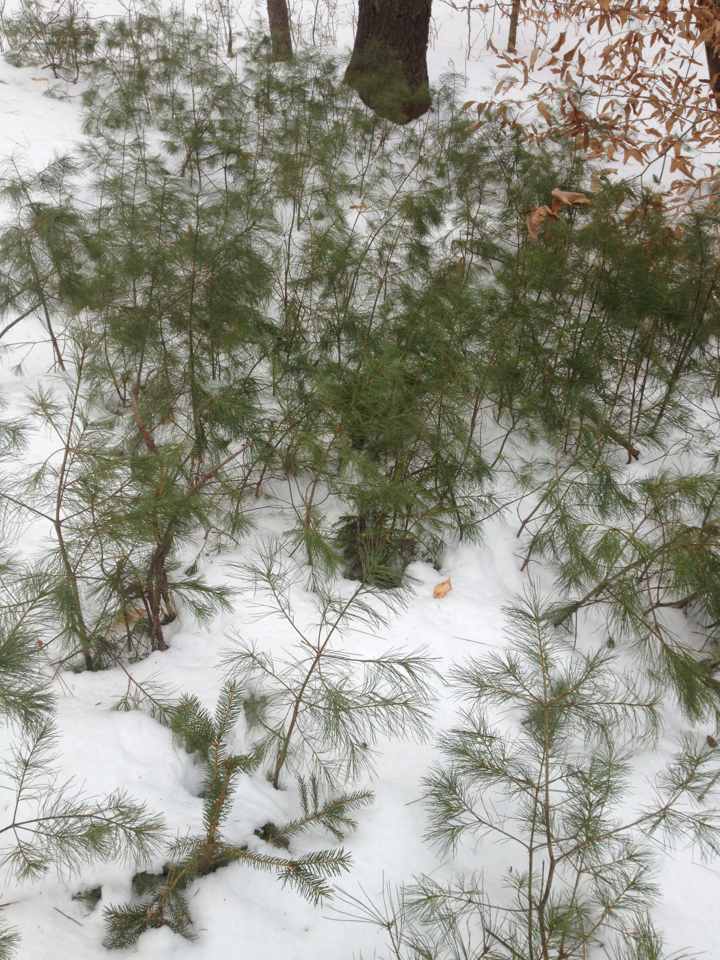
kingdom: Plantae
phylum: Tracheophyta
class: Pinopsida
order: Pinales
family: Pinaceae
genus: Pinus
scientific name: Pinus strobus
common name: Weymouth pine
